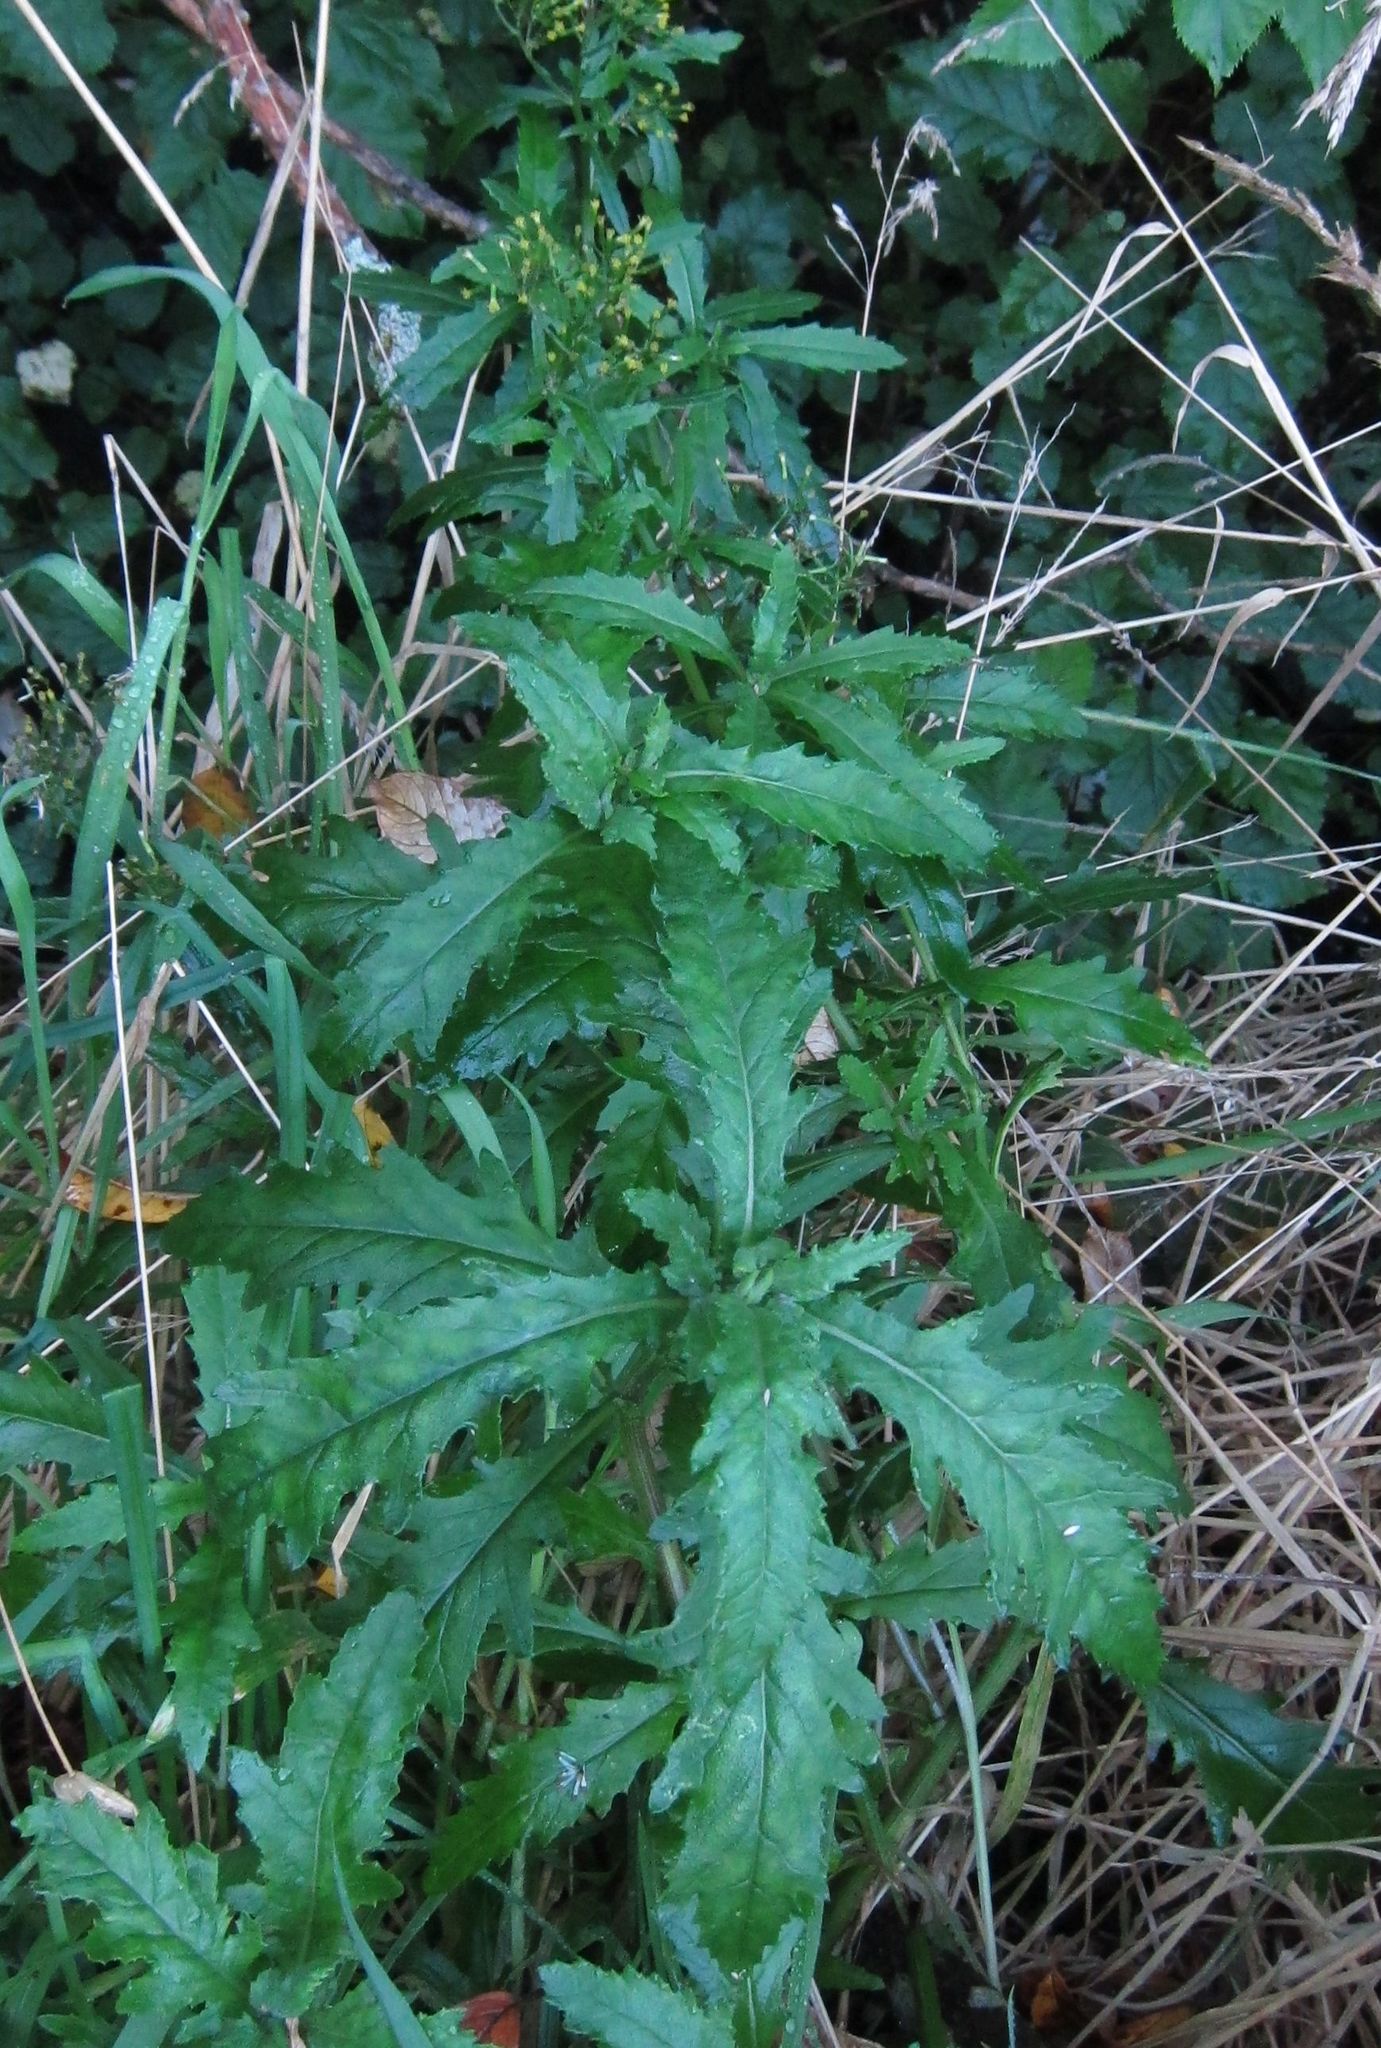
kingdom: Plantae
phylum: Tracheophyta
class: Magnoliopsida
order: Asterales
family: Asteraceae
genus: Senecio
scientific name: Senecio biserratus
